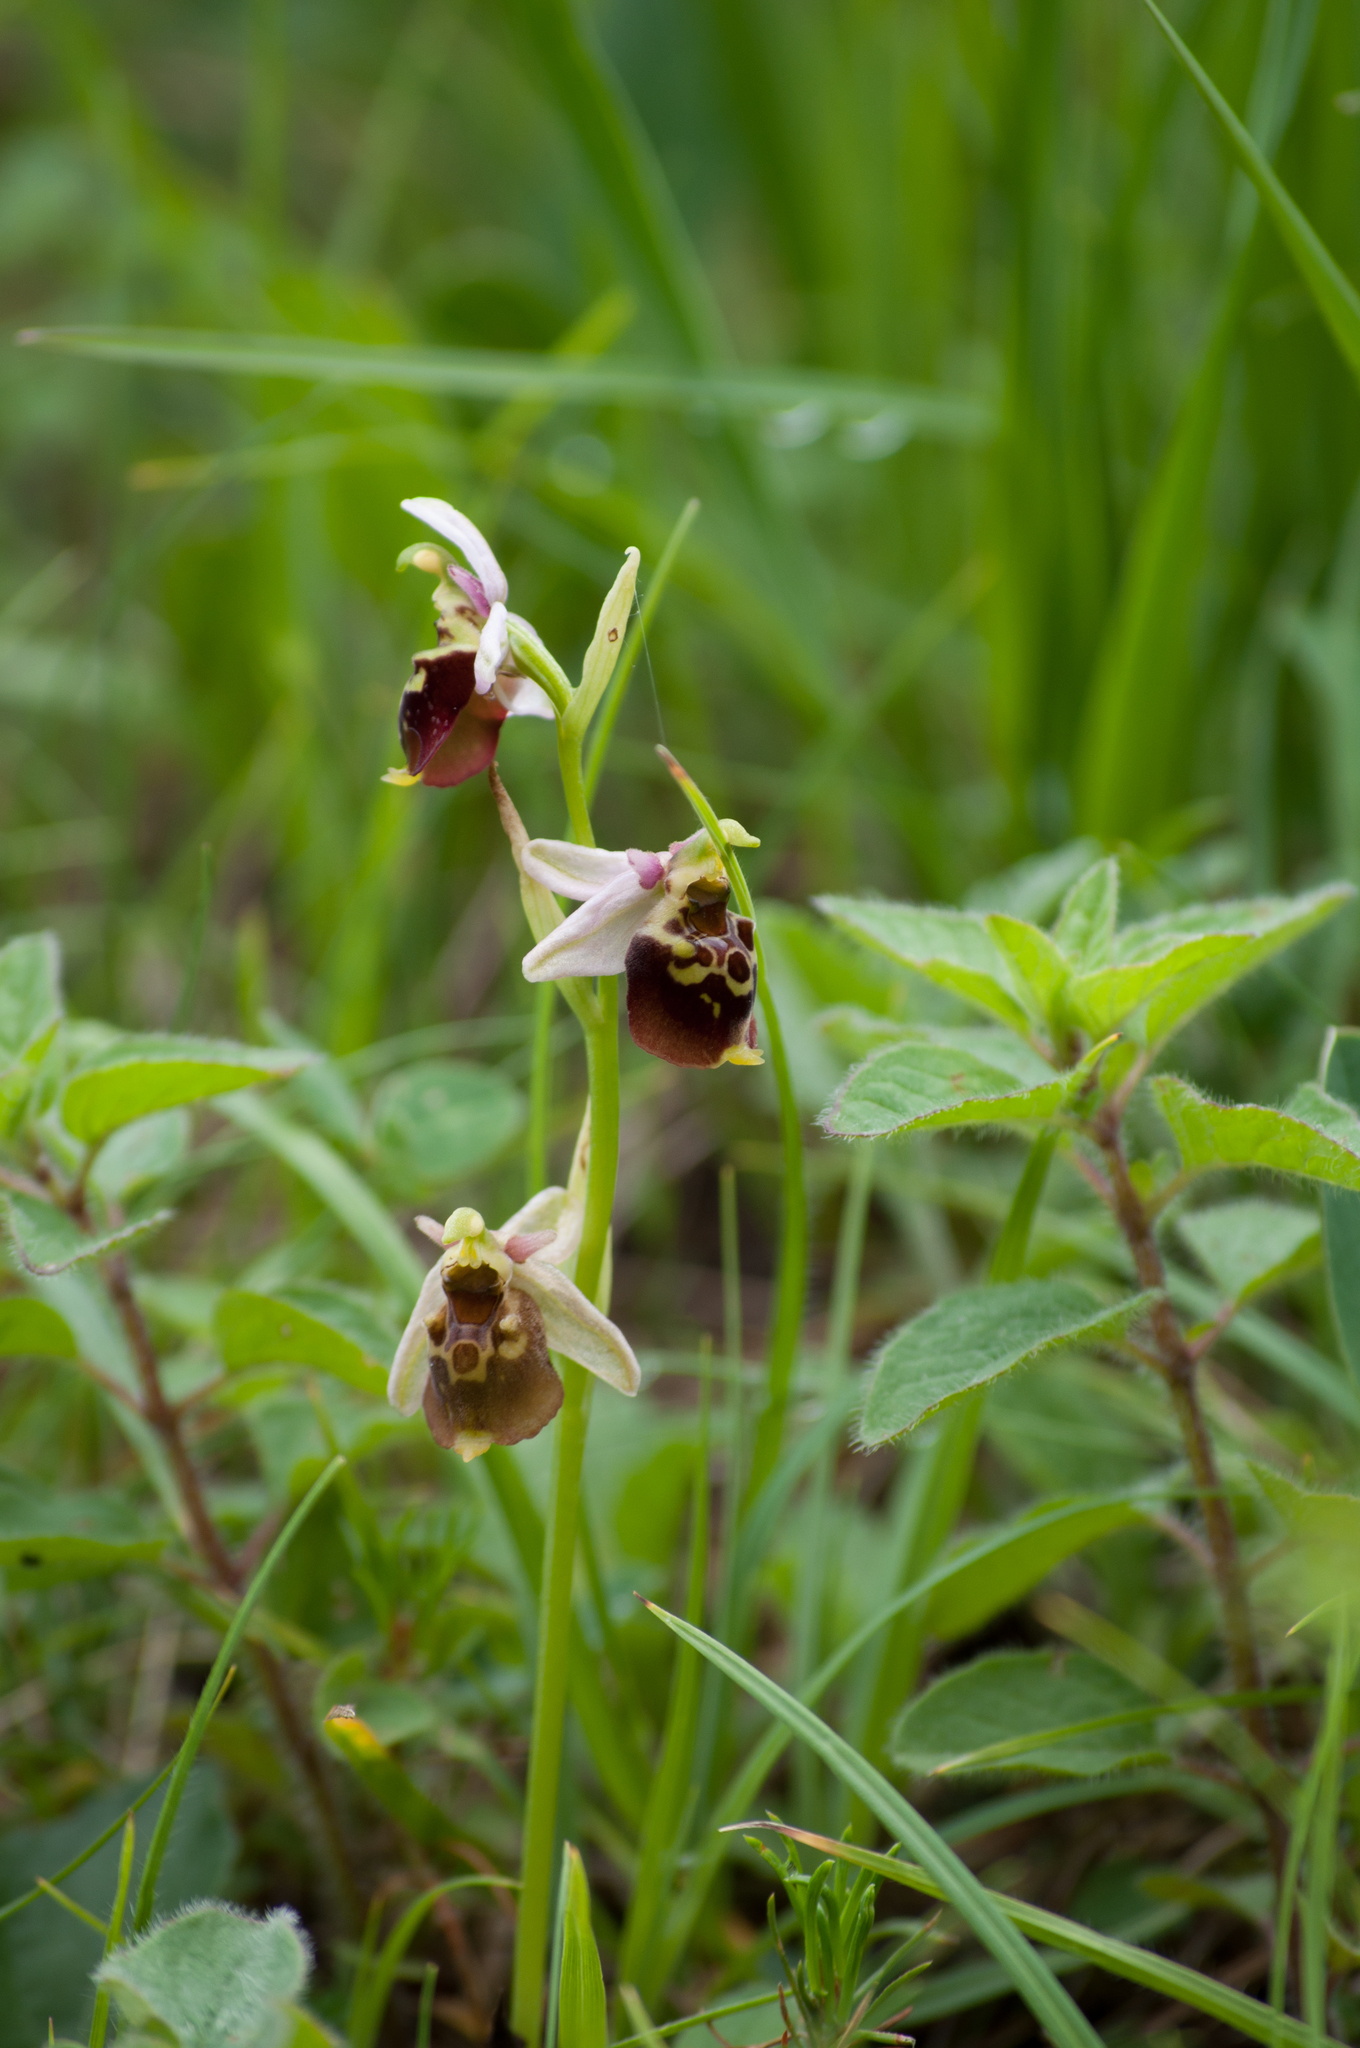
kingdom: Plantae
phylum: Tracheophyta
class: Liliopsida
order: Asparagales
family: Orchidaceae
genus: Ophrys
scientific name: Ophrys holosericea
